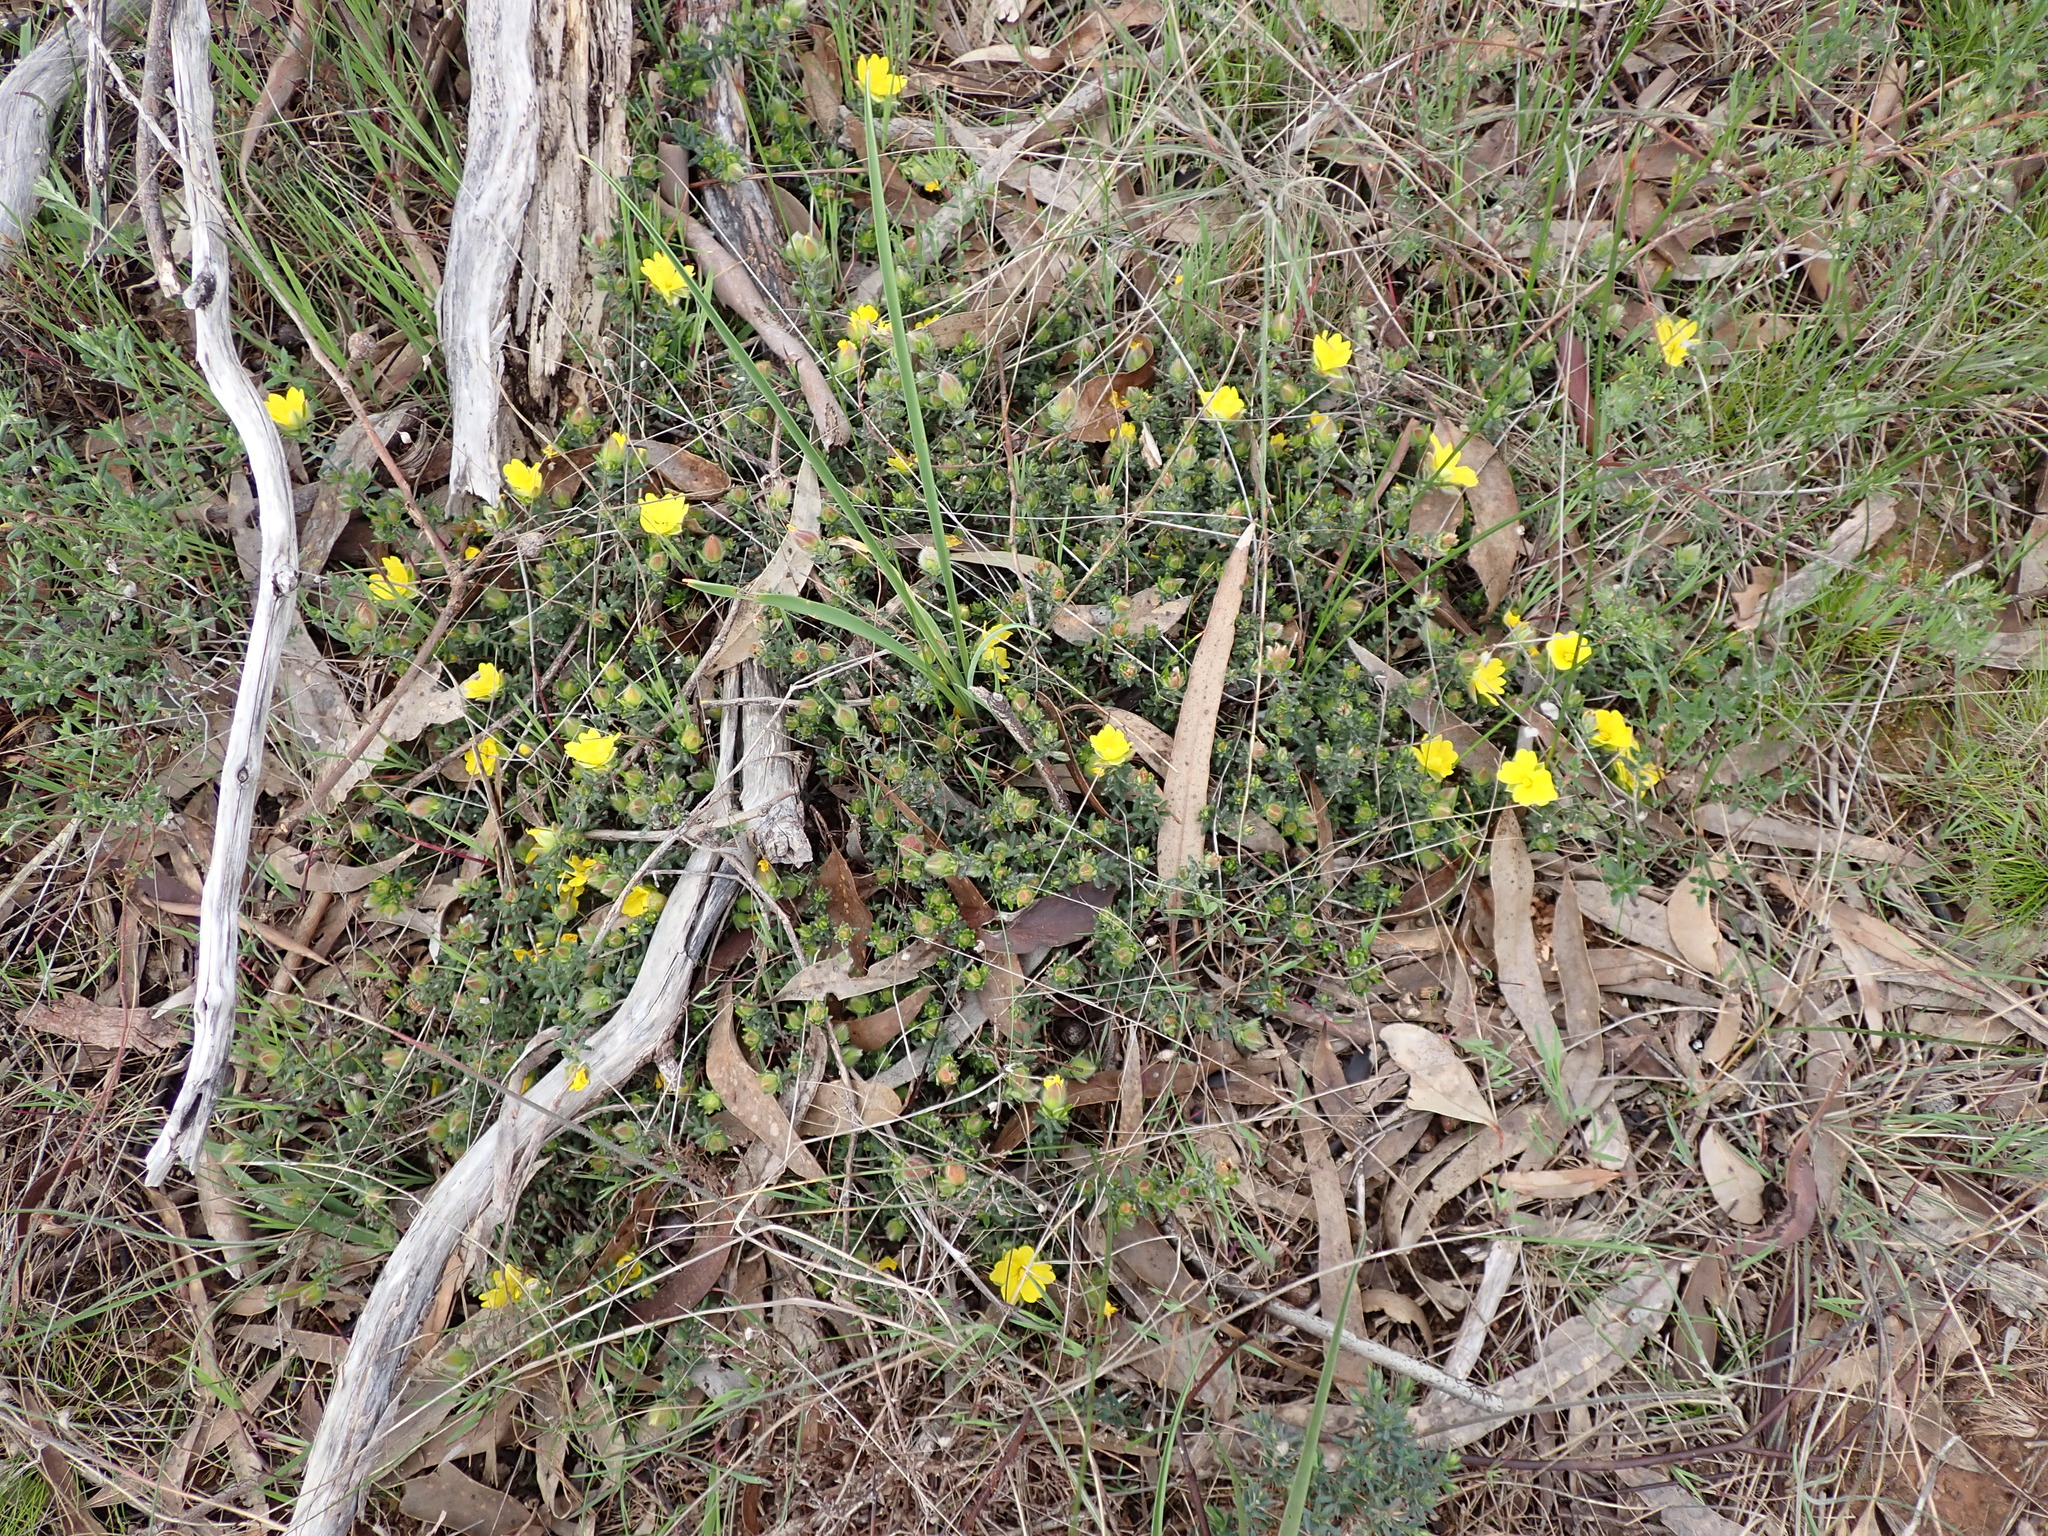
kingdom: Plantae
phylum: Tracheophyta
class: Magnoliopsida
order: Dilleniales
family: Dilleniaceae
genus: Hibbertia
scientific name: Hibbertia humifusa
